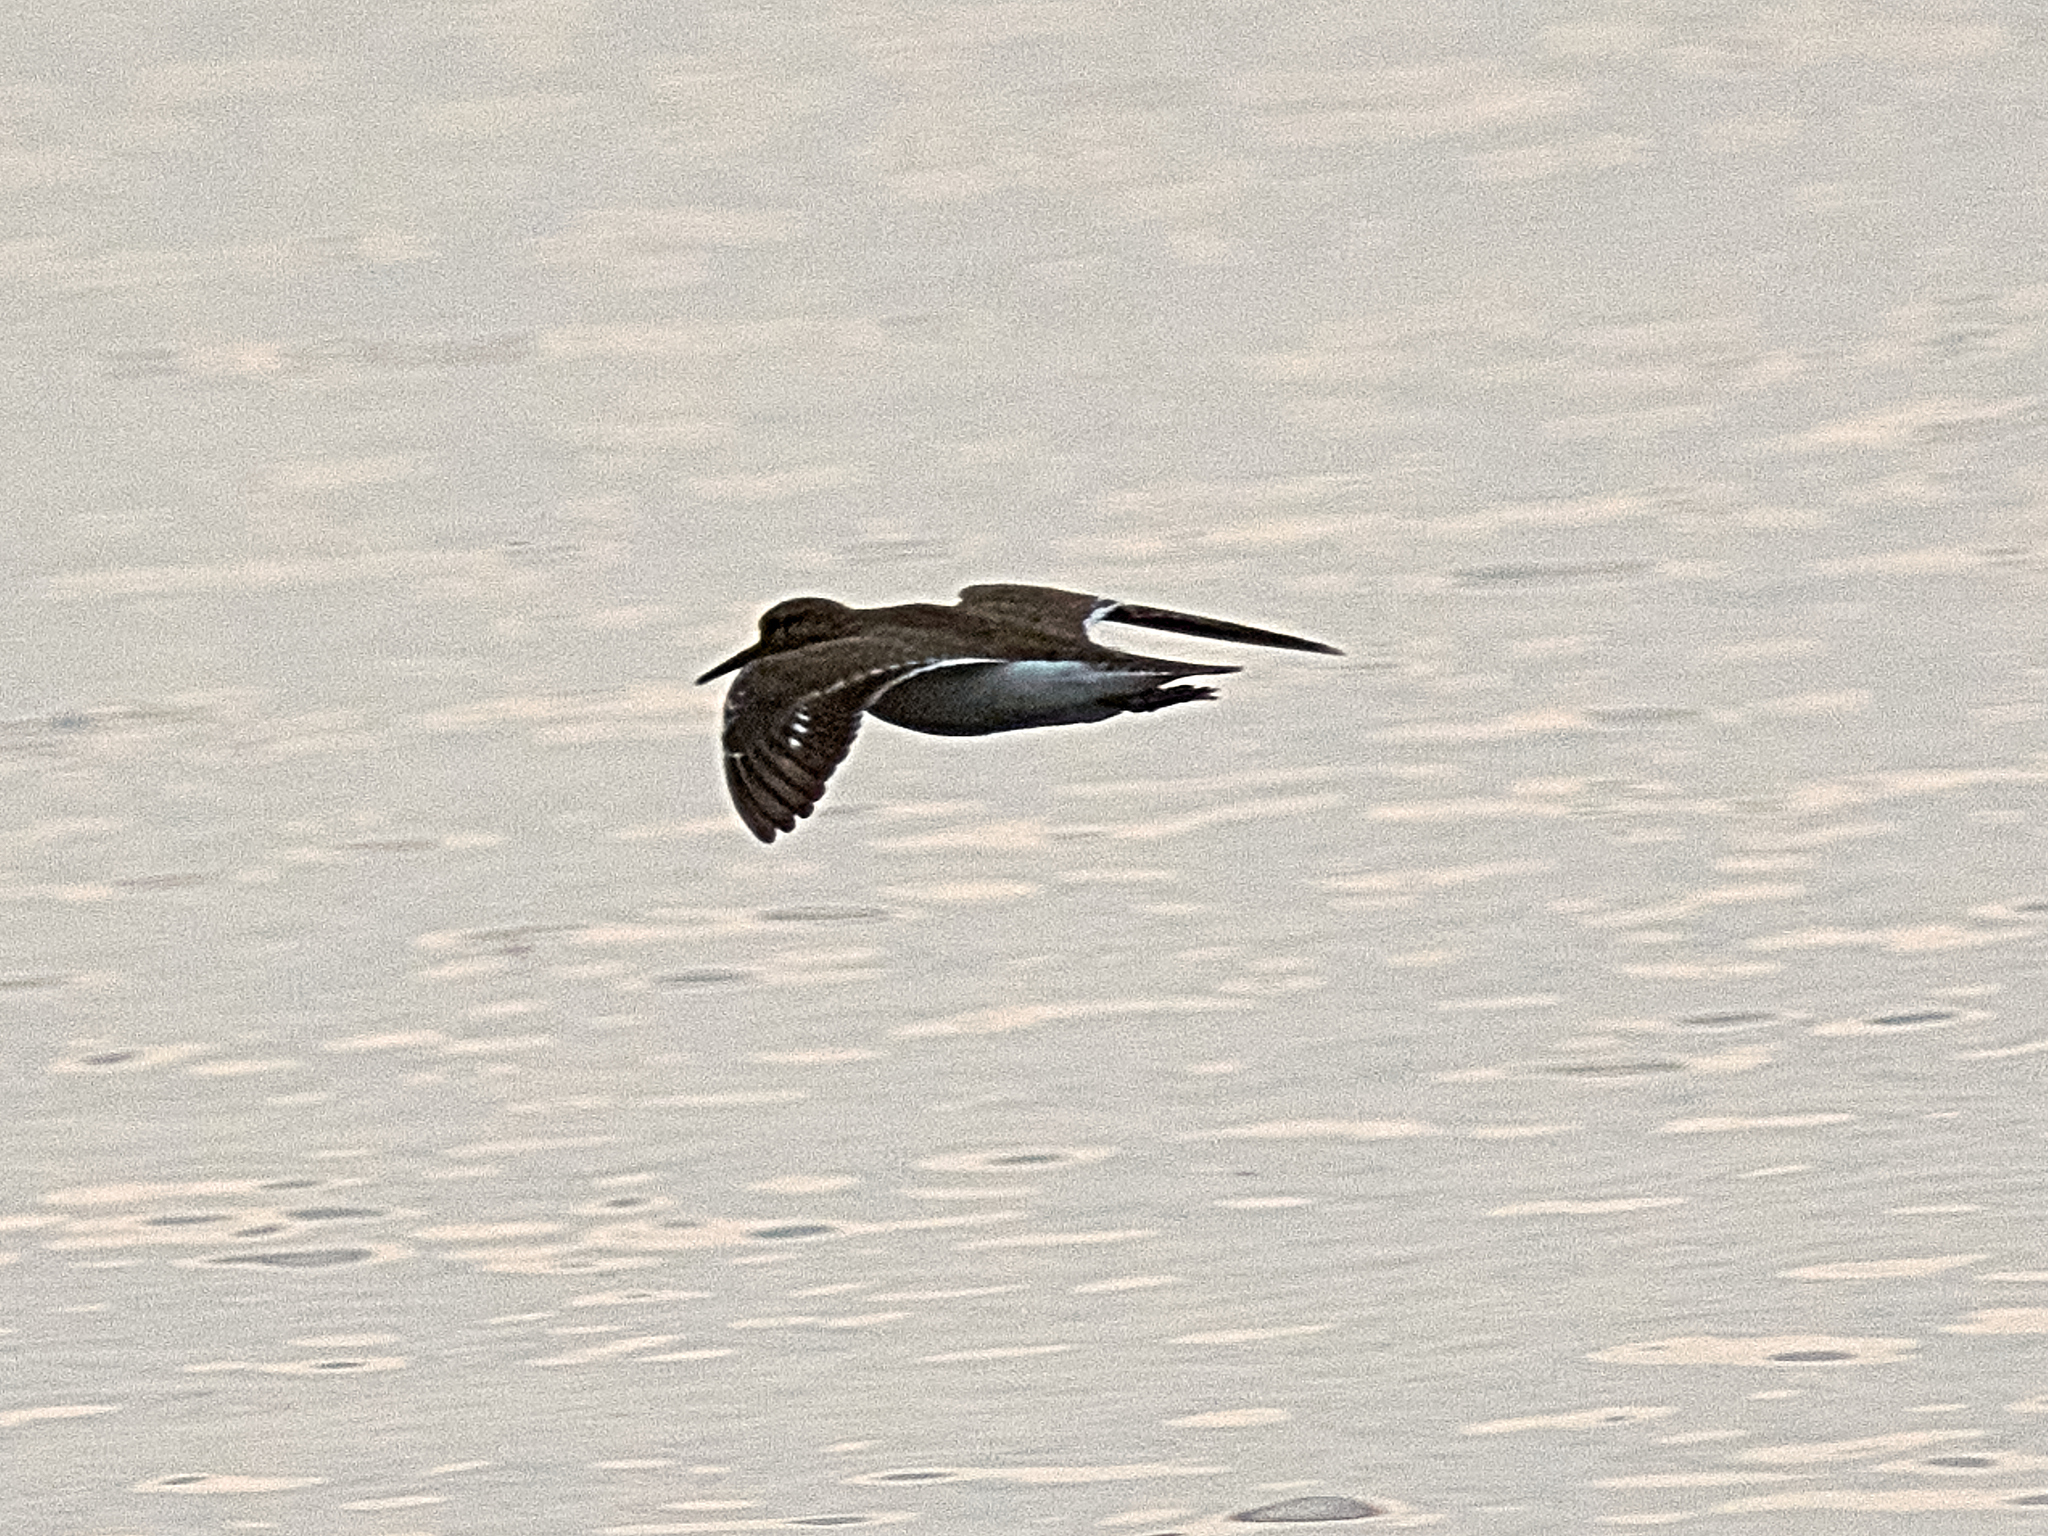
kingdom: Animalia
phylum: Chordata
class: Aves
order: Charadriiformes
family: Scolopacidae
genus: Actitis
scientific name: Actitis hypoleucos
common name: Common sandpiper
